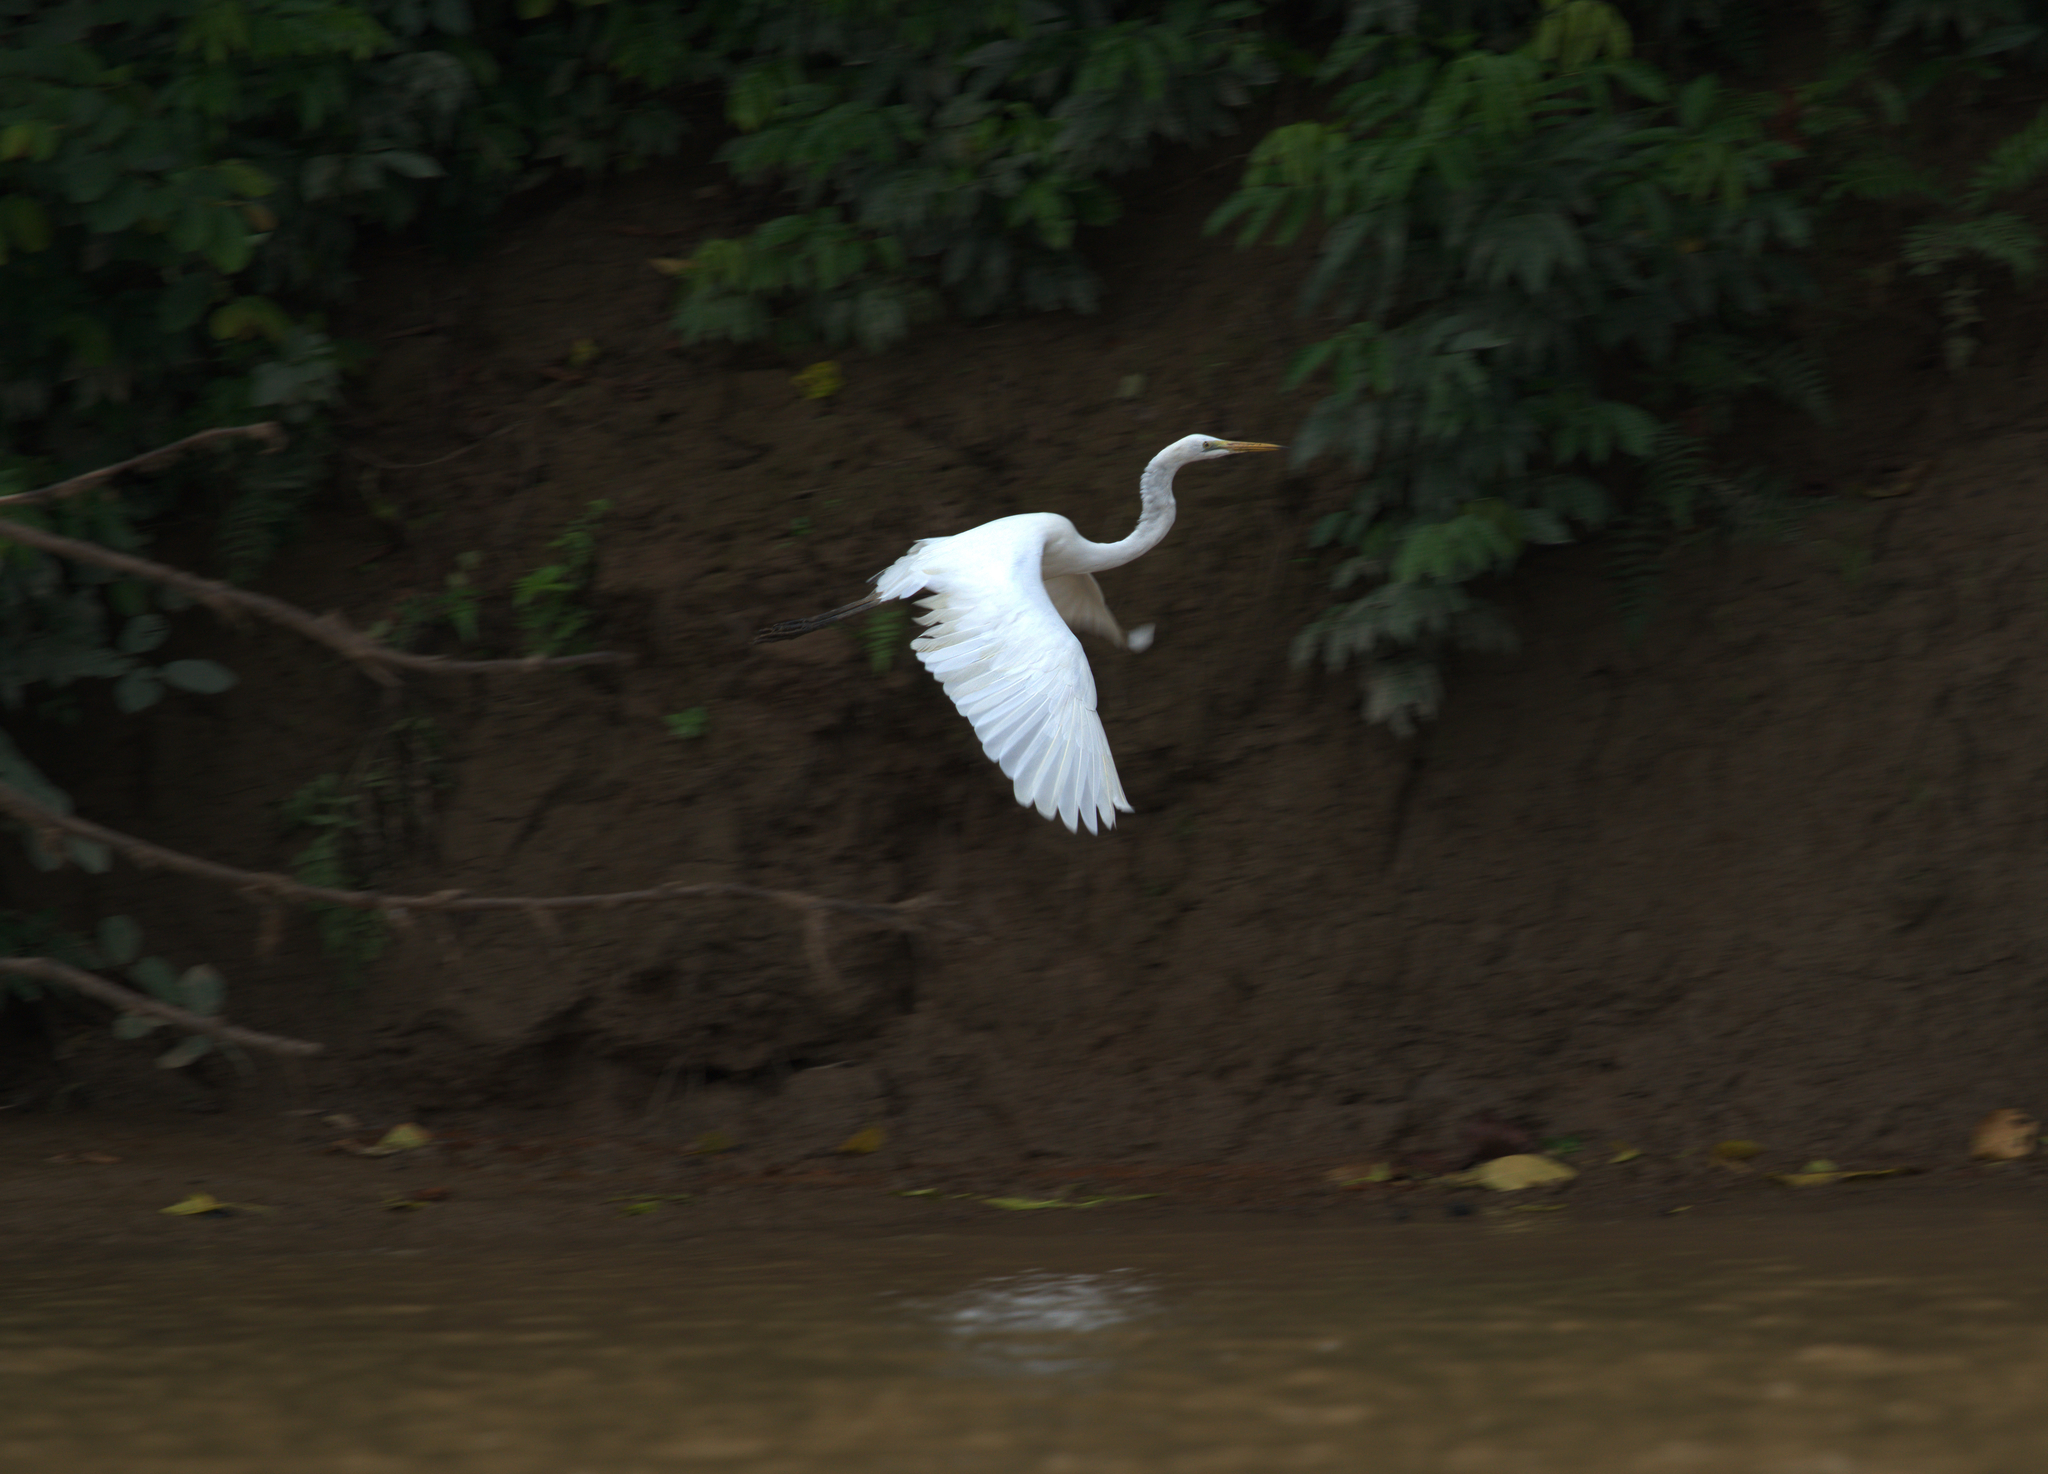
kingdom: Animalia
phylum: Chordata
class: Aves
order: Pelecaniformes
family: Ardeidae
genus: Ardea
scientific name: Ardea alba
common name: Great egret
